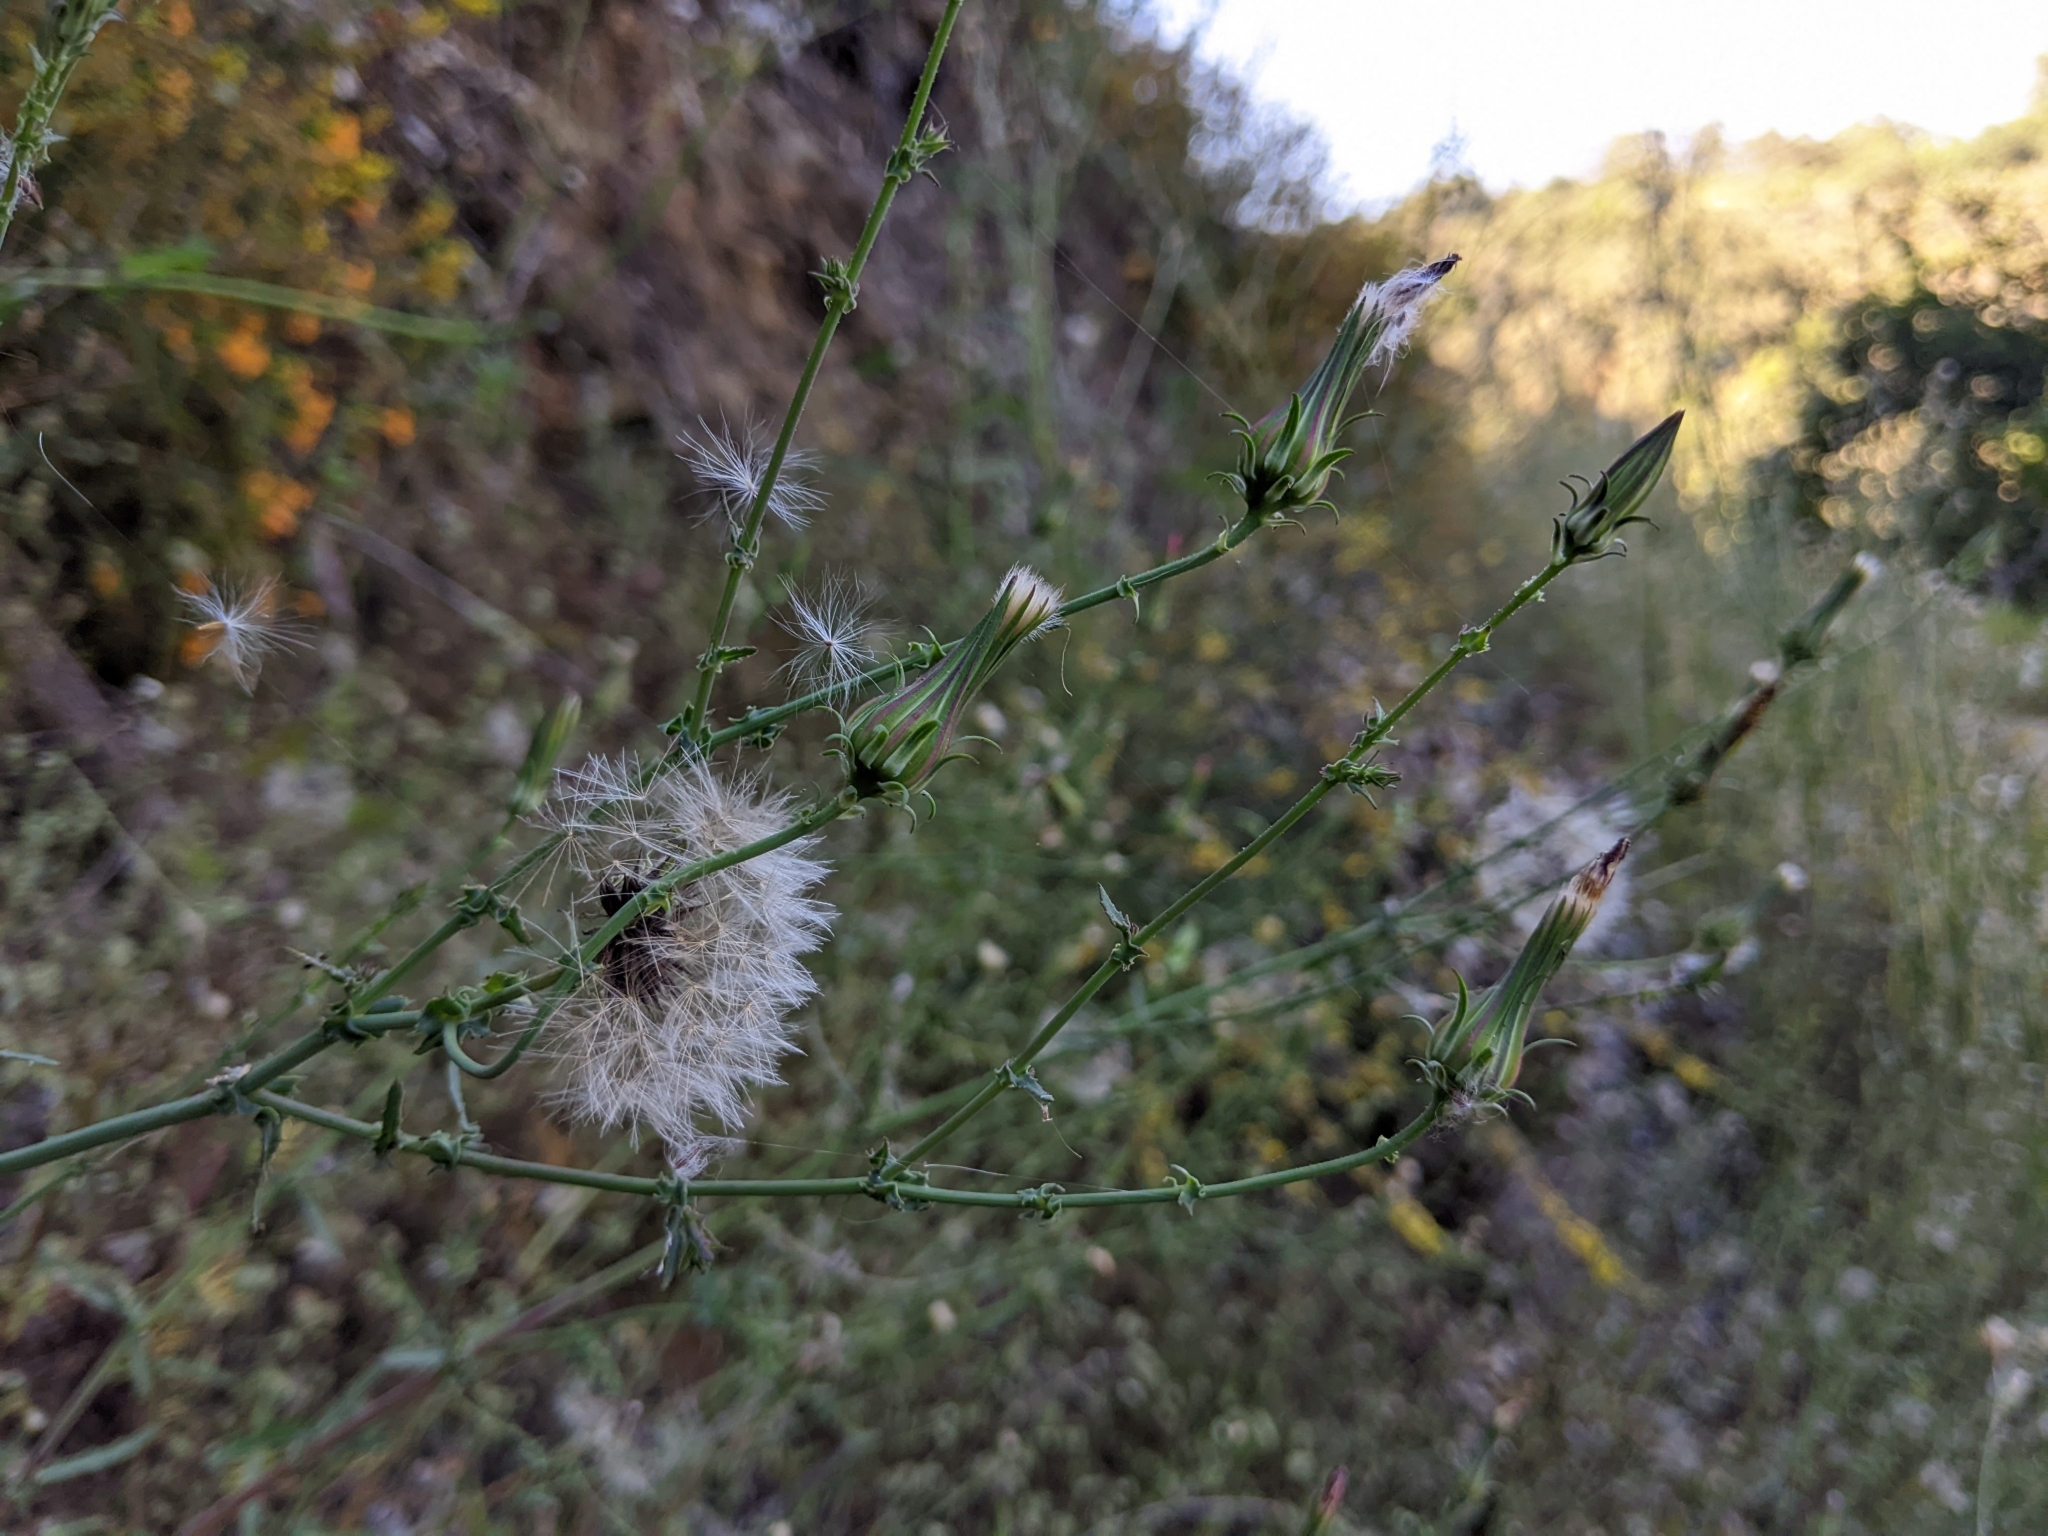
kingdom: Plantae
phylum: Tracheophyta
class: Magnoliopsida
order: Asterales
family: Asteraceae
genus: Rafinesquia
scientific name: Rafinesquia californica
